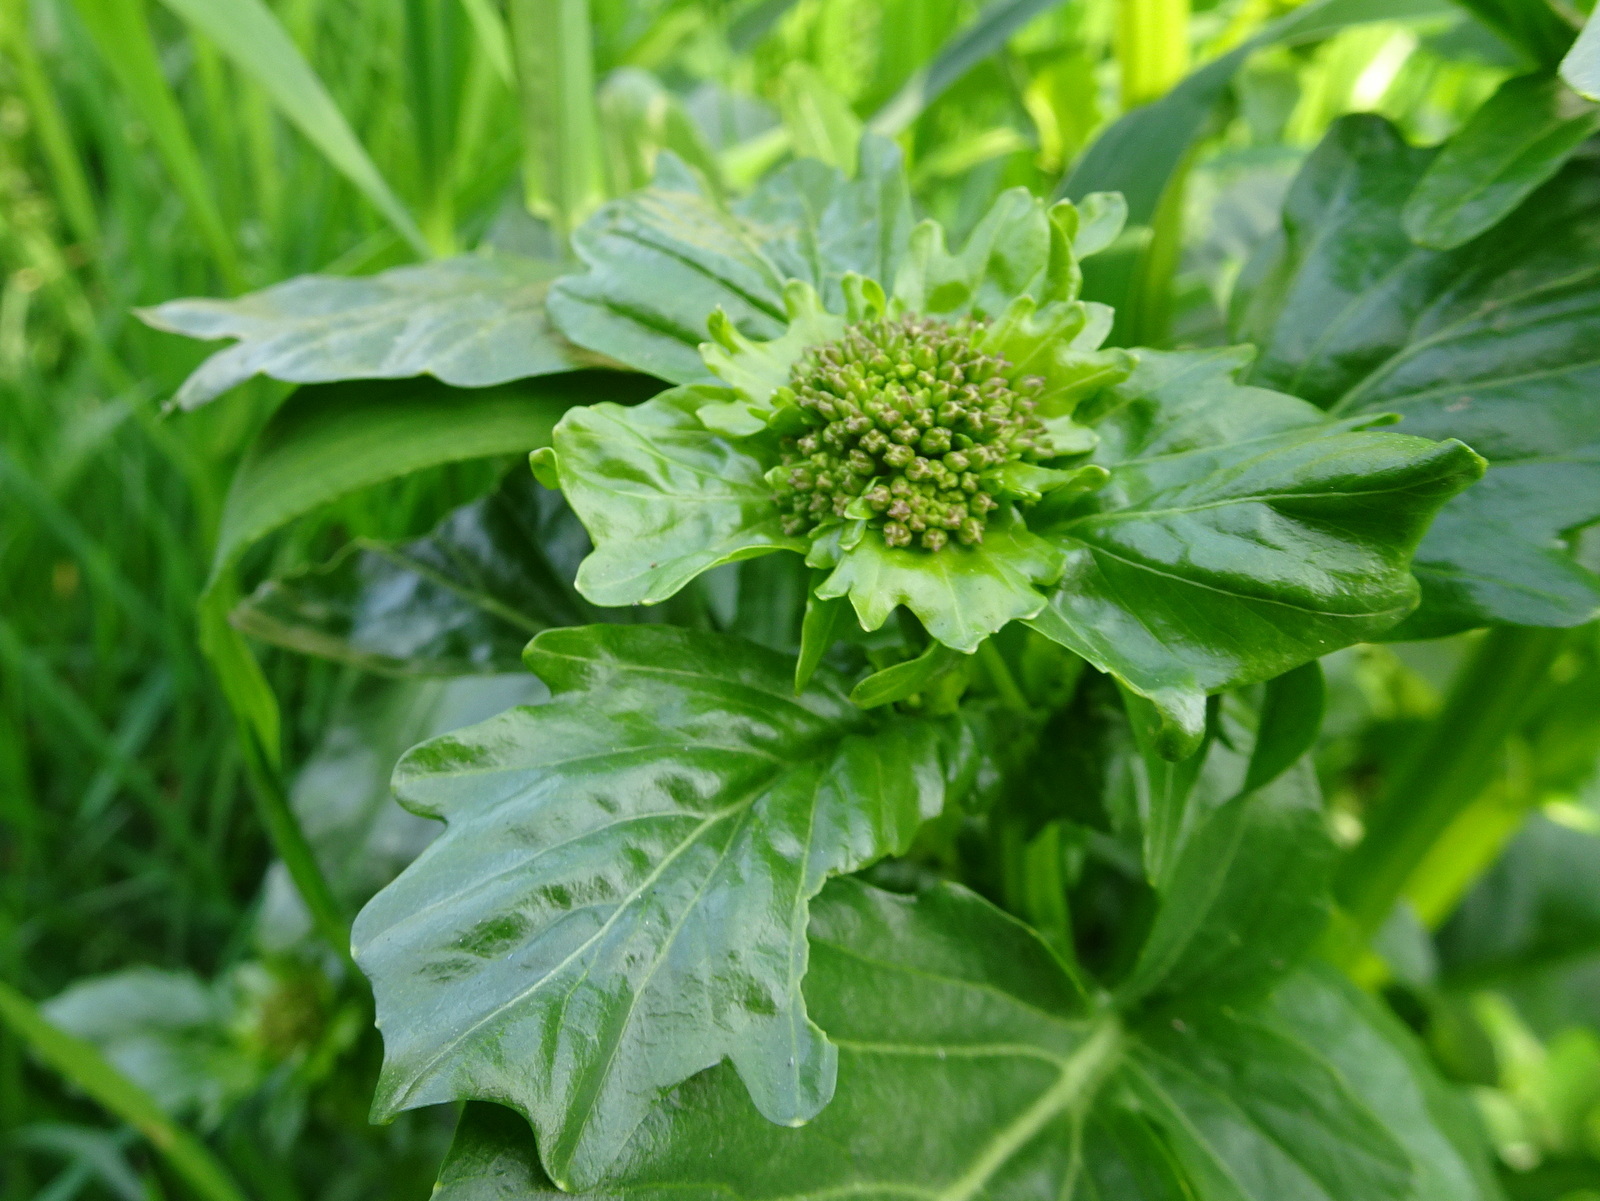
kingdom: Plantae
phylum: Tracheophyta
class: Magnoliopsida
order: Brassicales
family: Brassicaceae
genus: Barbarea
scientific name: Barbarea vulgaris
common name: Cressy-greens
